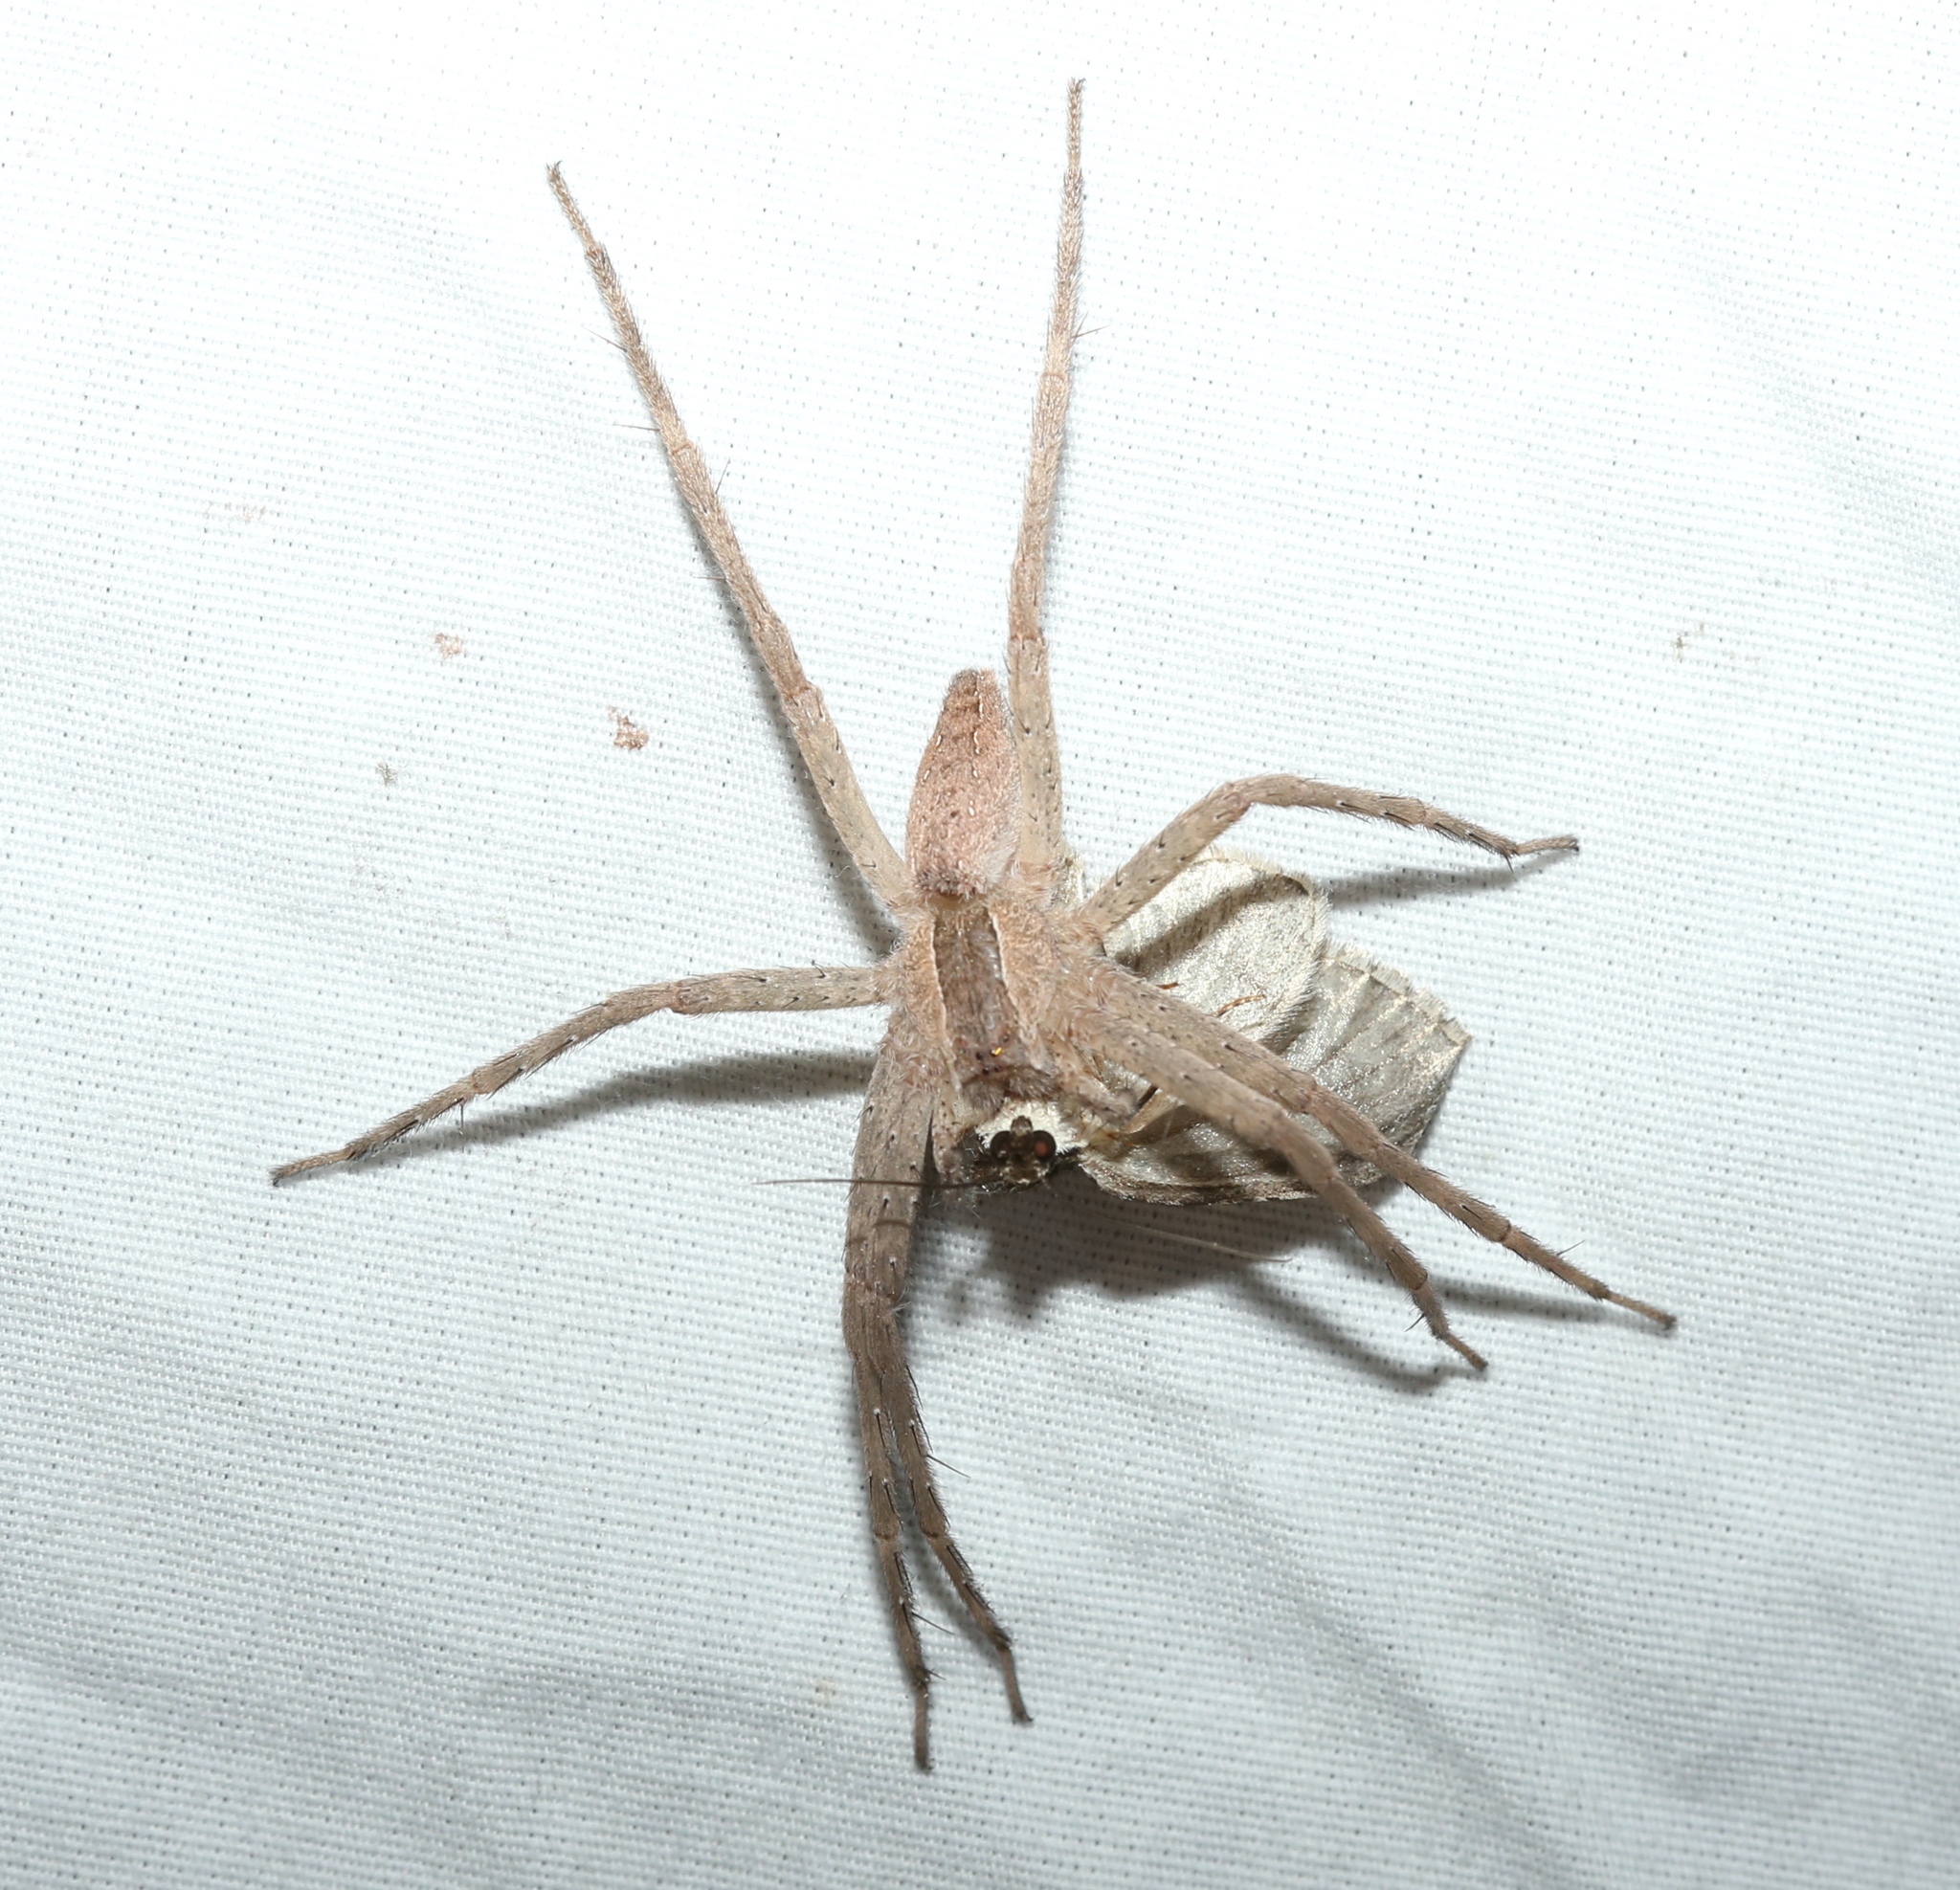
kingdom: Animalia
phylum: Arthropoda
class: Arachnida
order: Araneae
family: Pisauridae
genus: Pisaurina
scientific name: Pisaurina mira
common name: American nursery web spider
